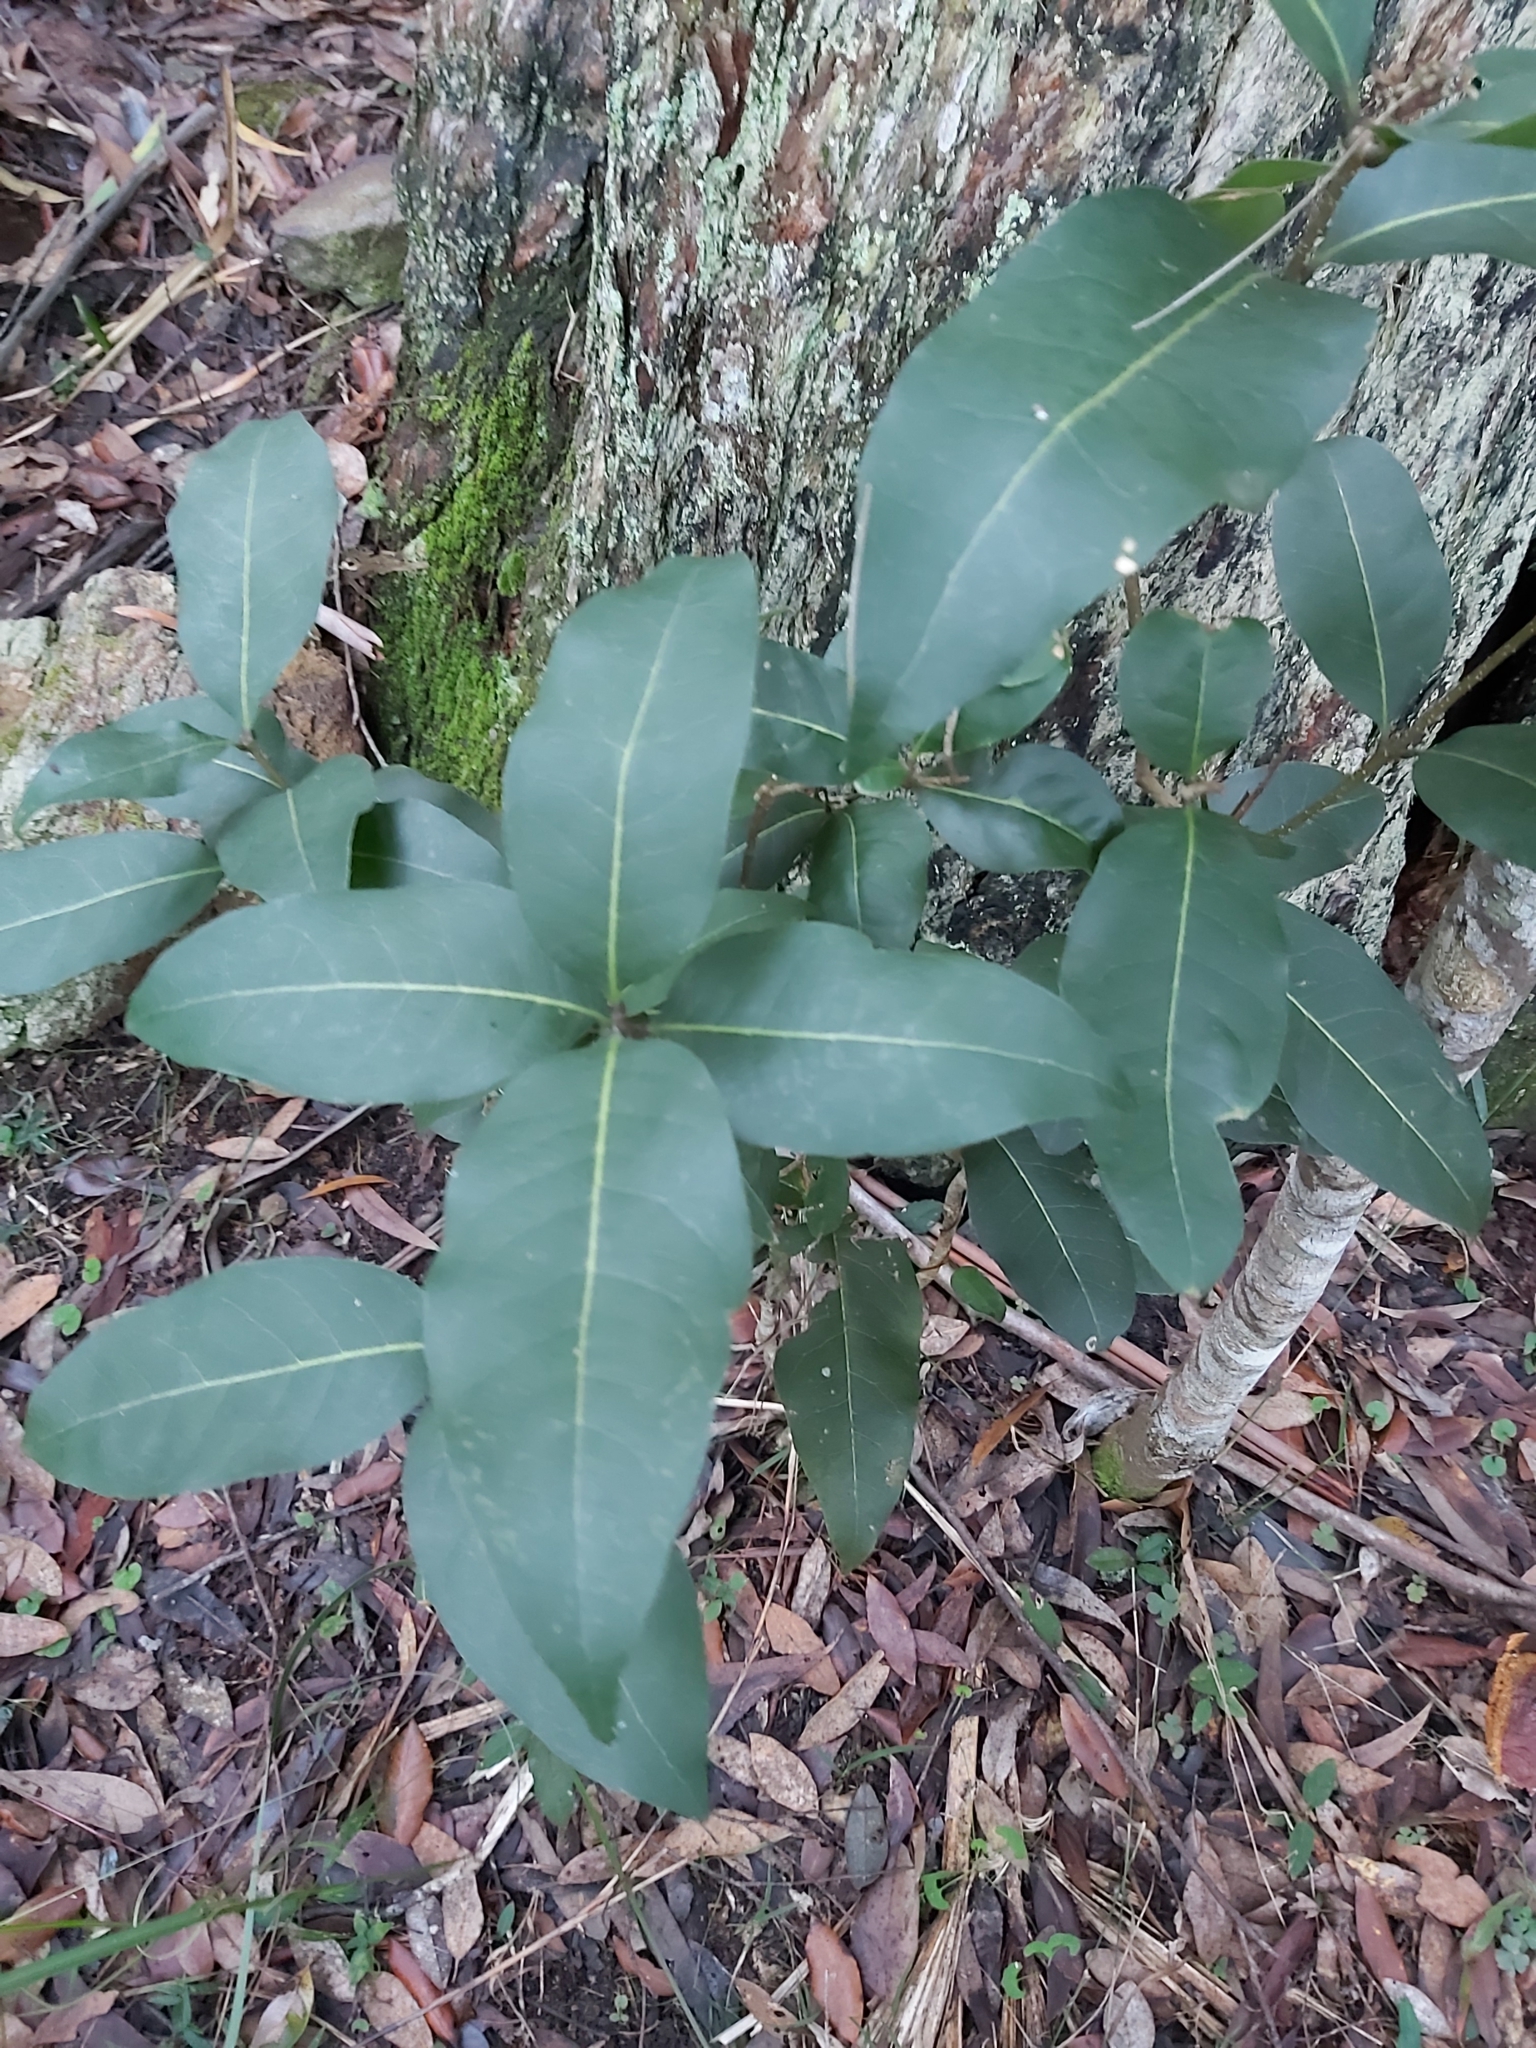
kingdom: Plantae
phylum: Tracheophyta
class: Magnoliopsida
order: Lamiales
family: Oleaceae
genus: Notelaea
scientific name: Notelaea venosa
